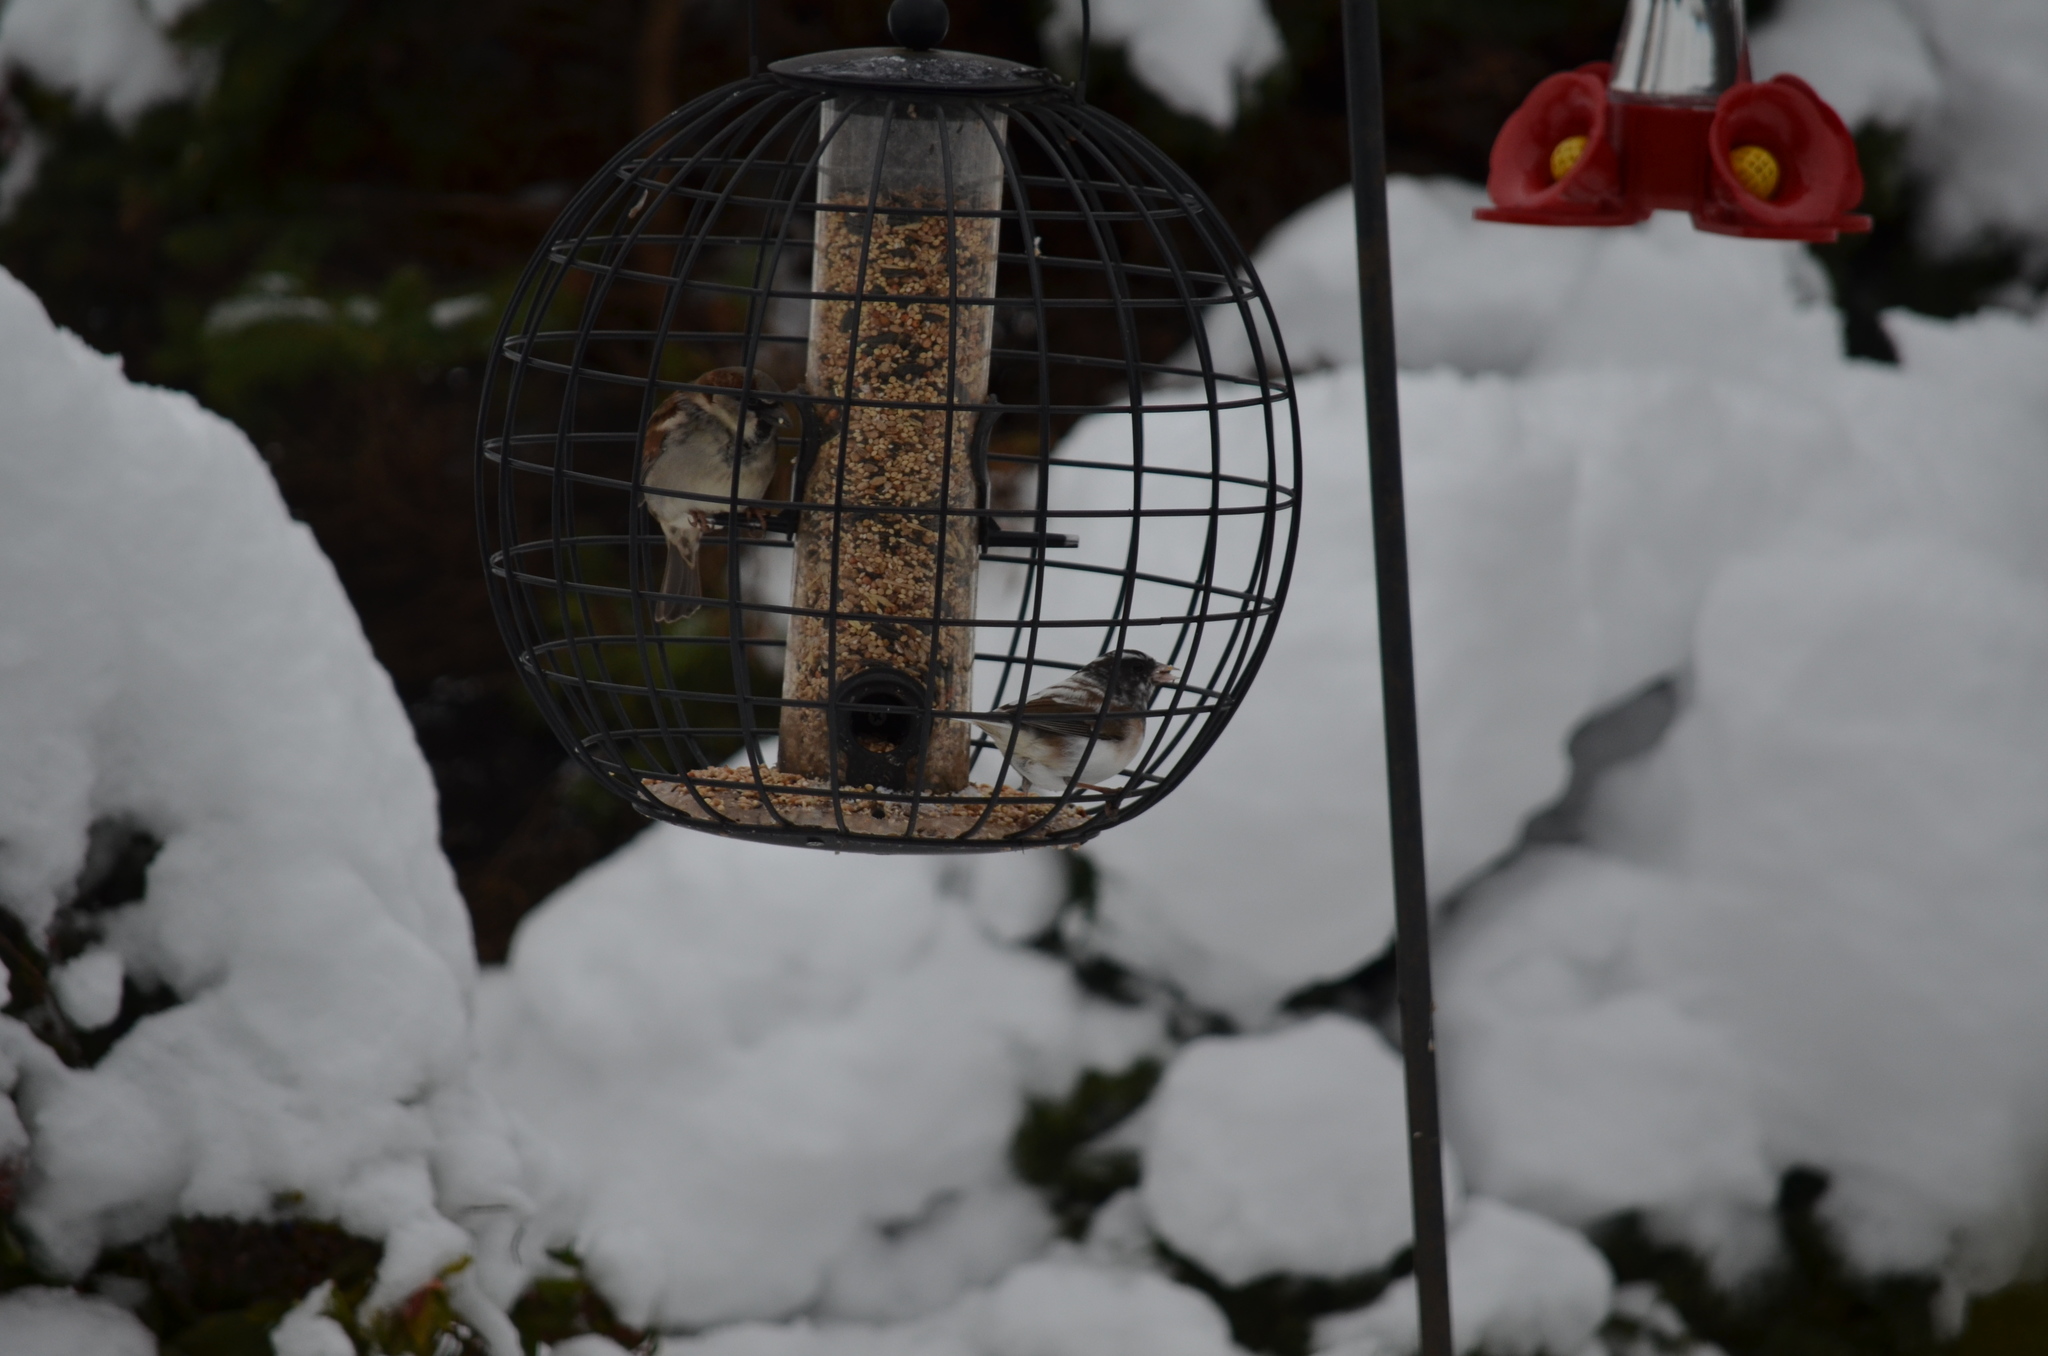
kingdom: Animalia
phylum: Chordata
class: Aves
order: Passeriformes
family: Passerellidae
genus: Junco
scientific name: Junco hyemalis
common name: Dark-eyed junco
